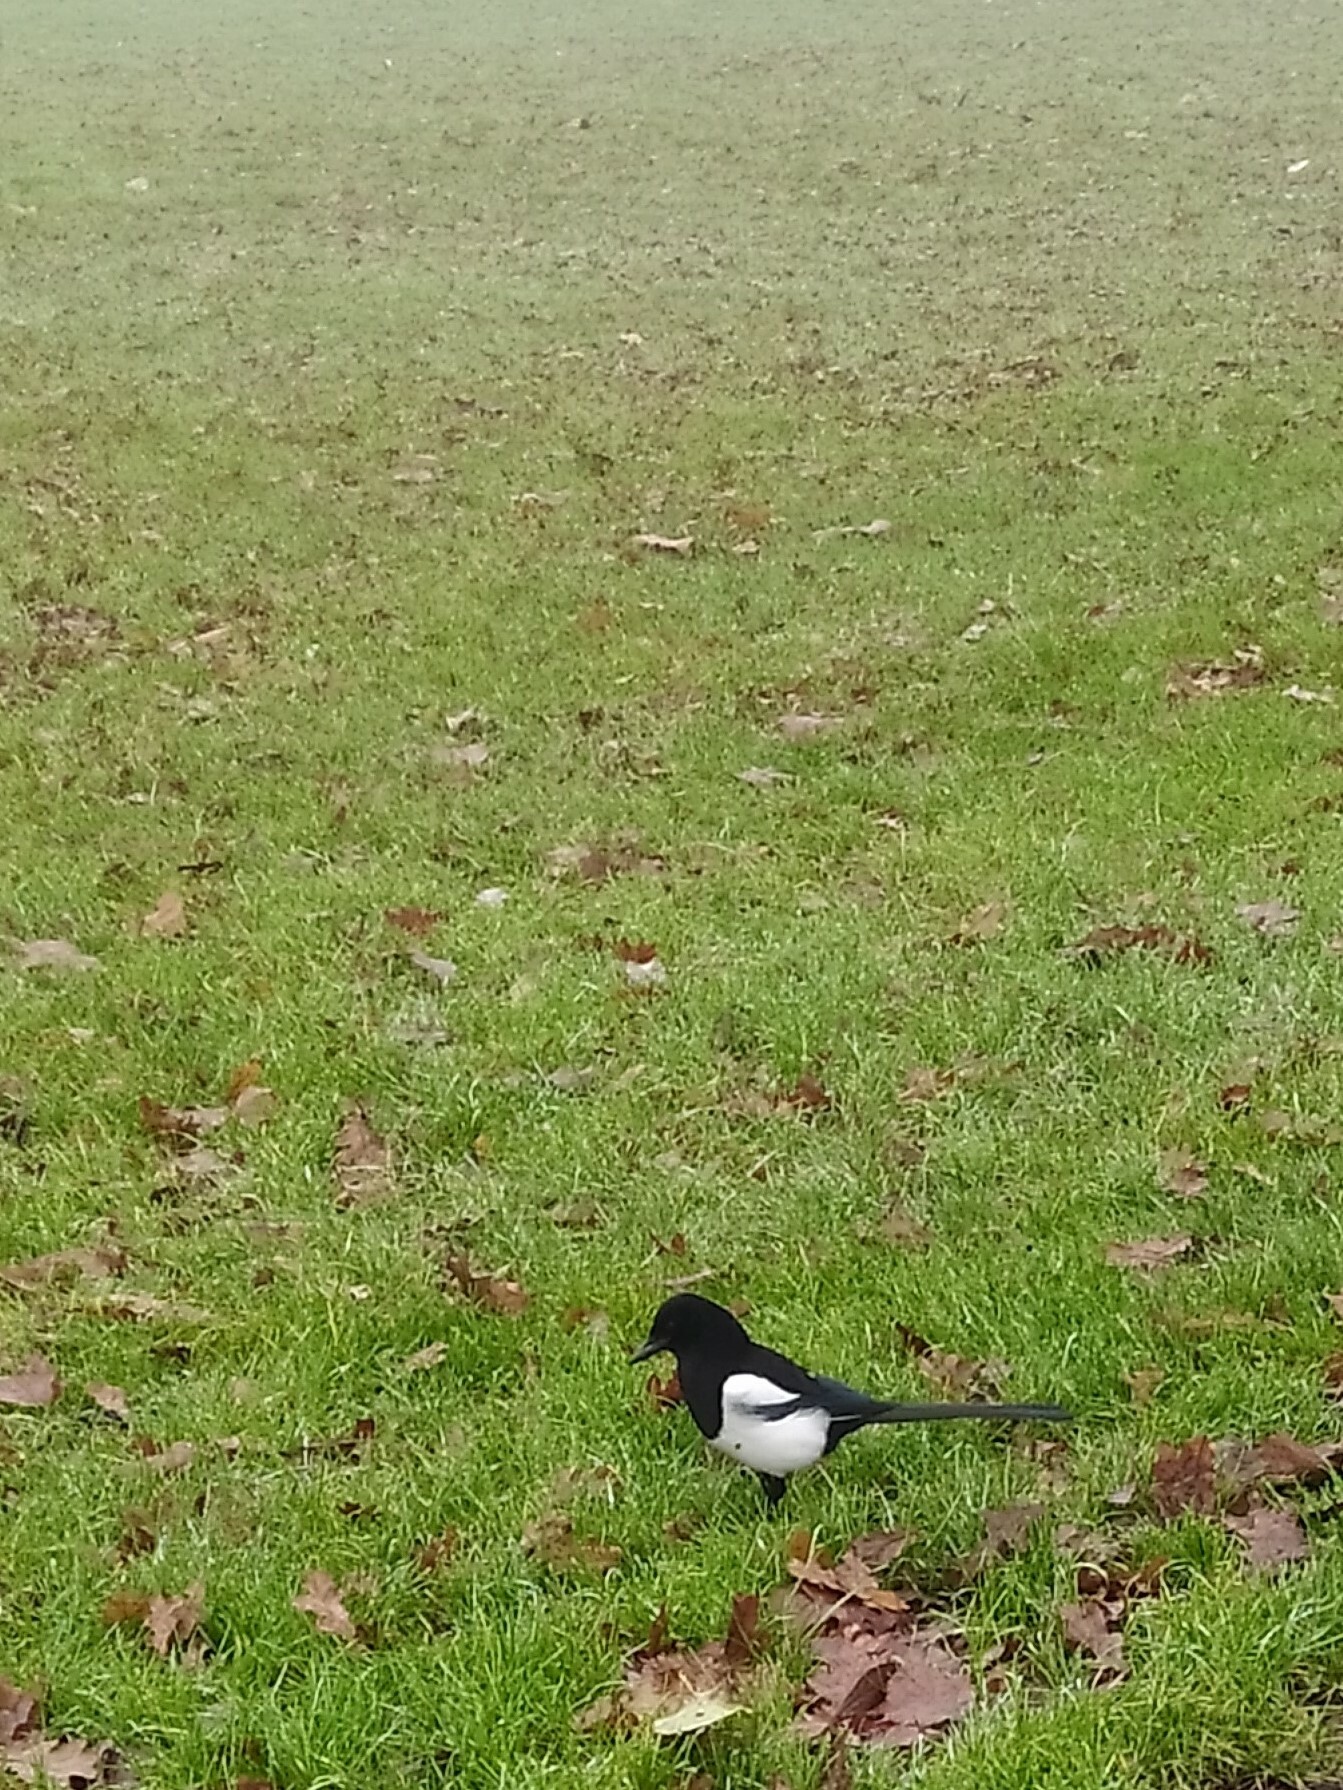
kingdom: Animalia
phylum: Chordata
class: Aves
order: Passeriformes
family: Corvidae
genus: Pica
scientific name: Pica pica
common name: Eurasian magpie
